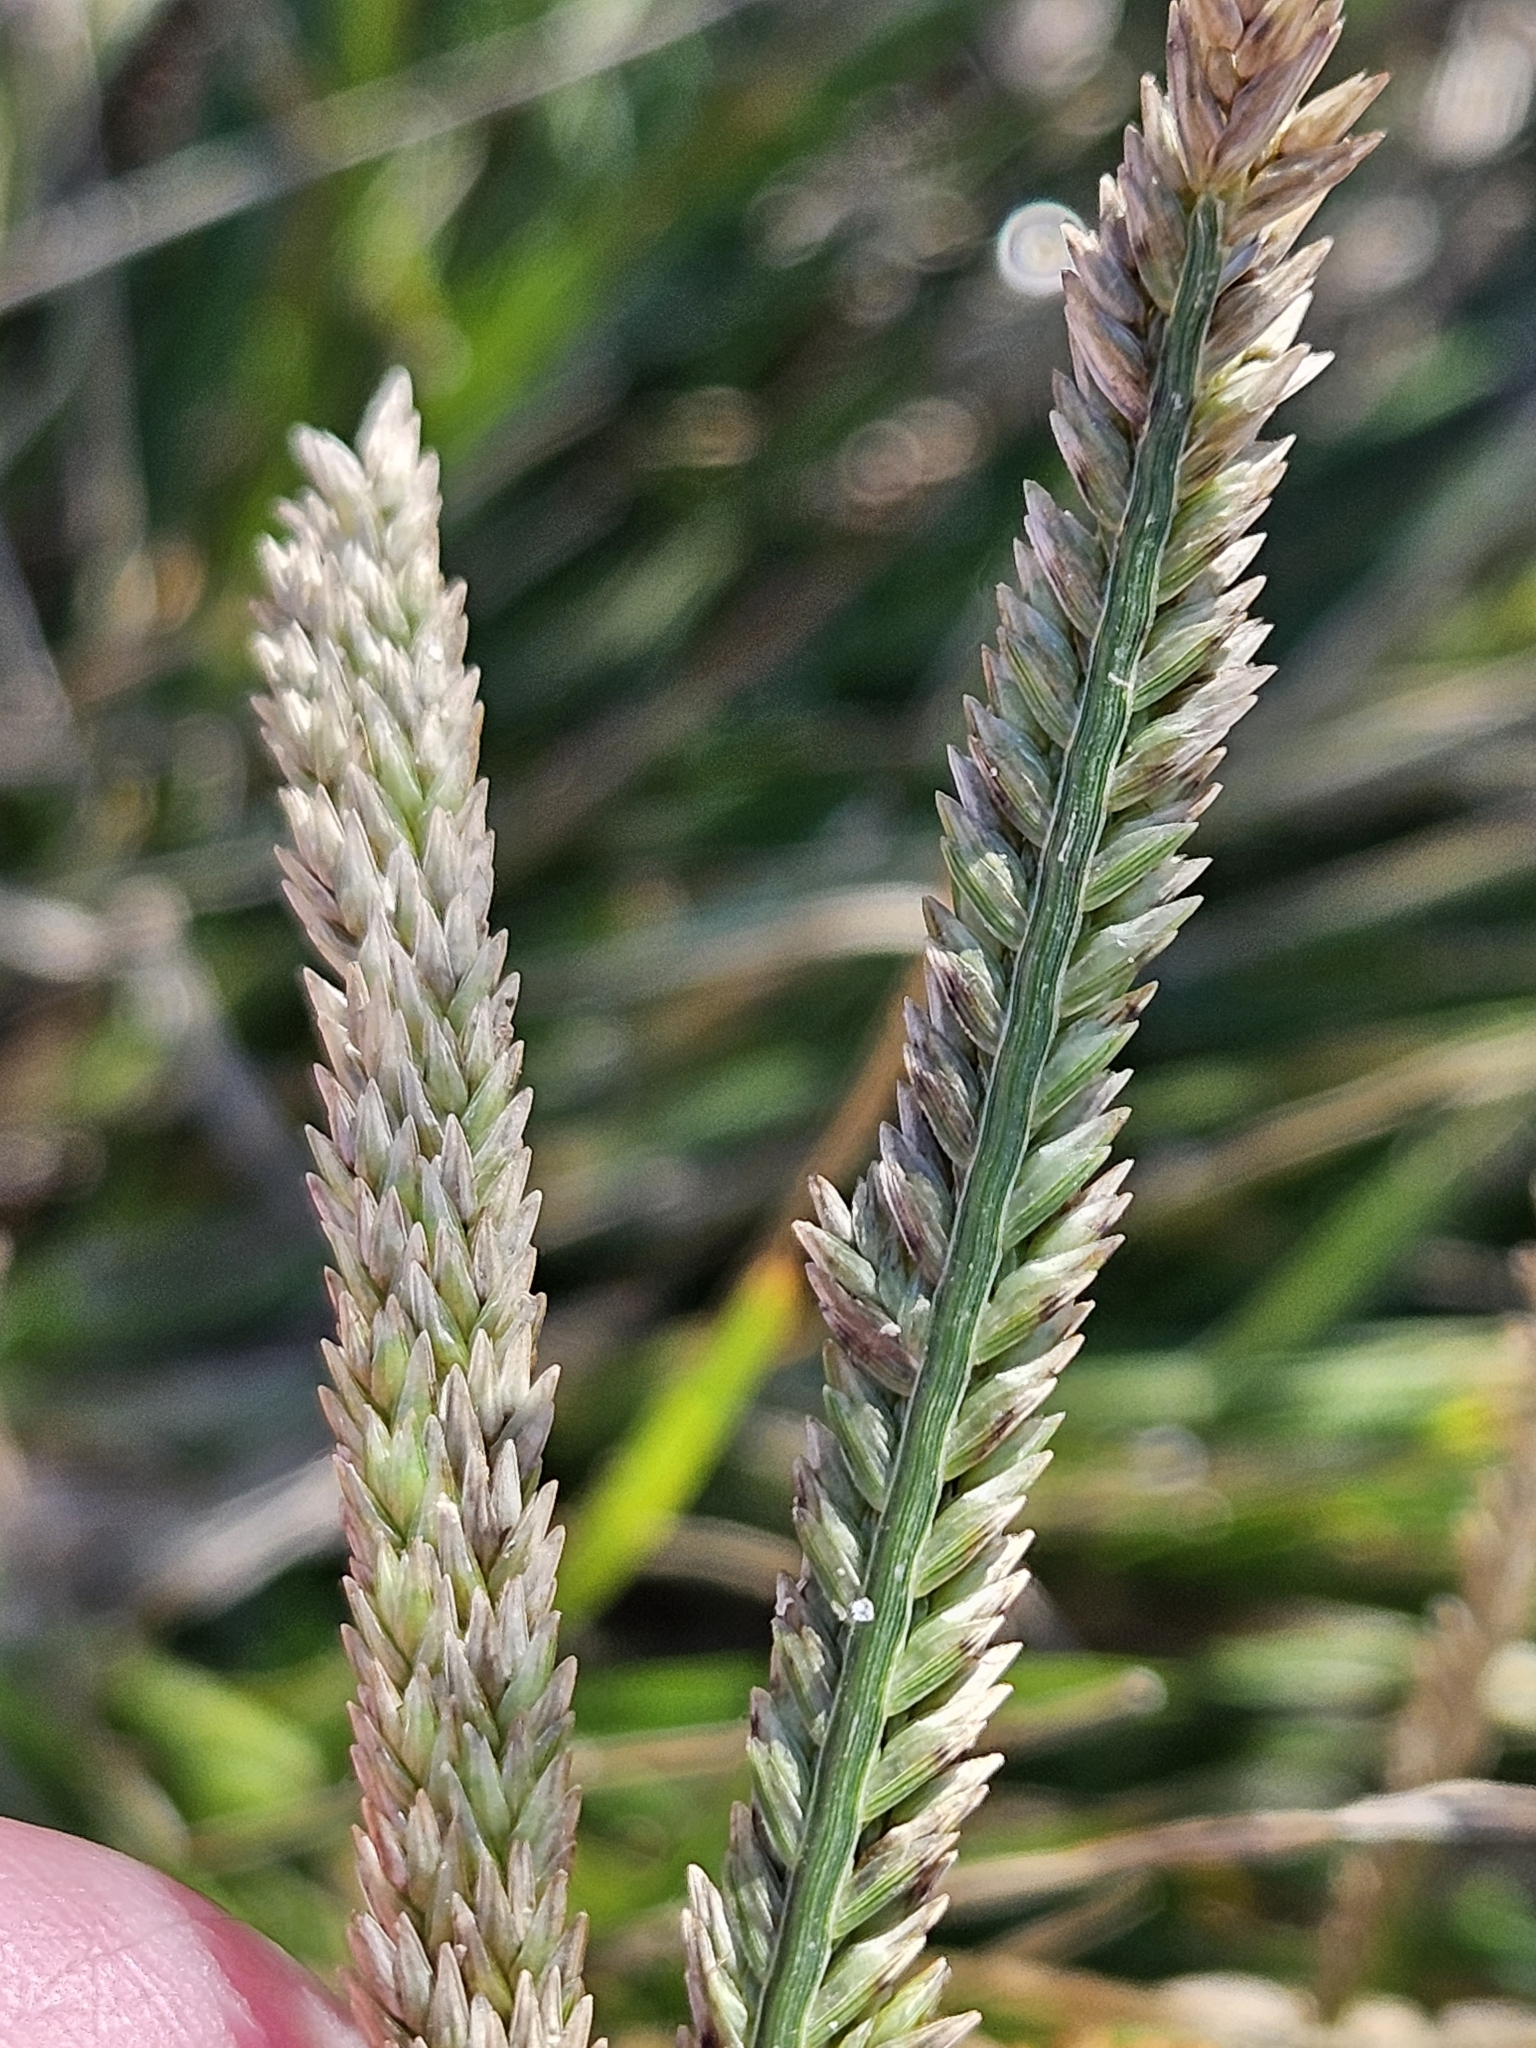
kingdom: Plantae
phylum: Tracheophyta
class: Liliopsida
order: Poales
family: Poaceae
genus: Eleusine
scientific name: Eleusine indica
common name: Yard-grass
